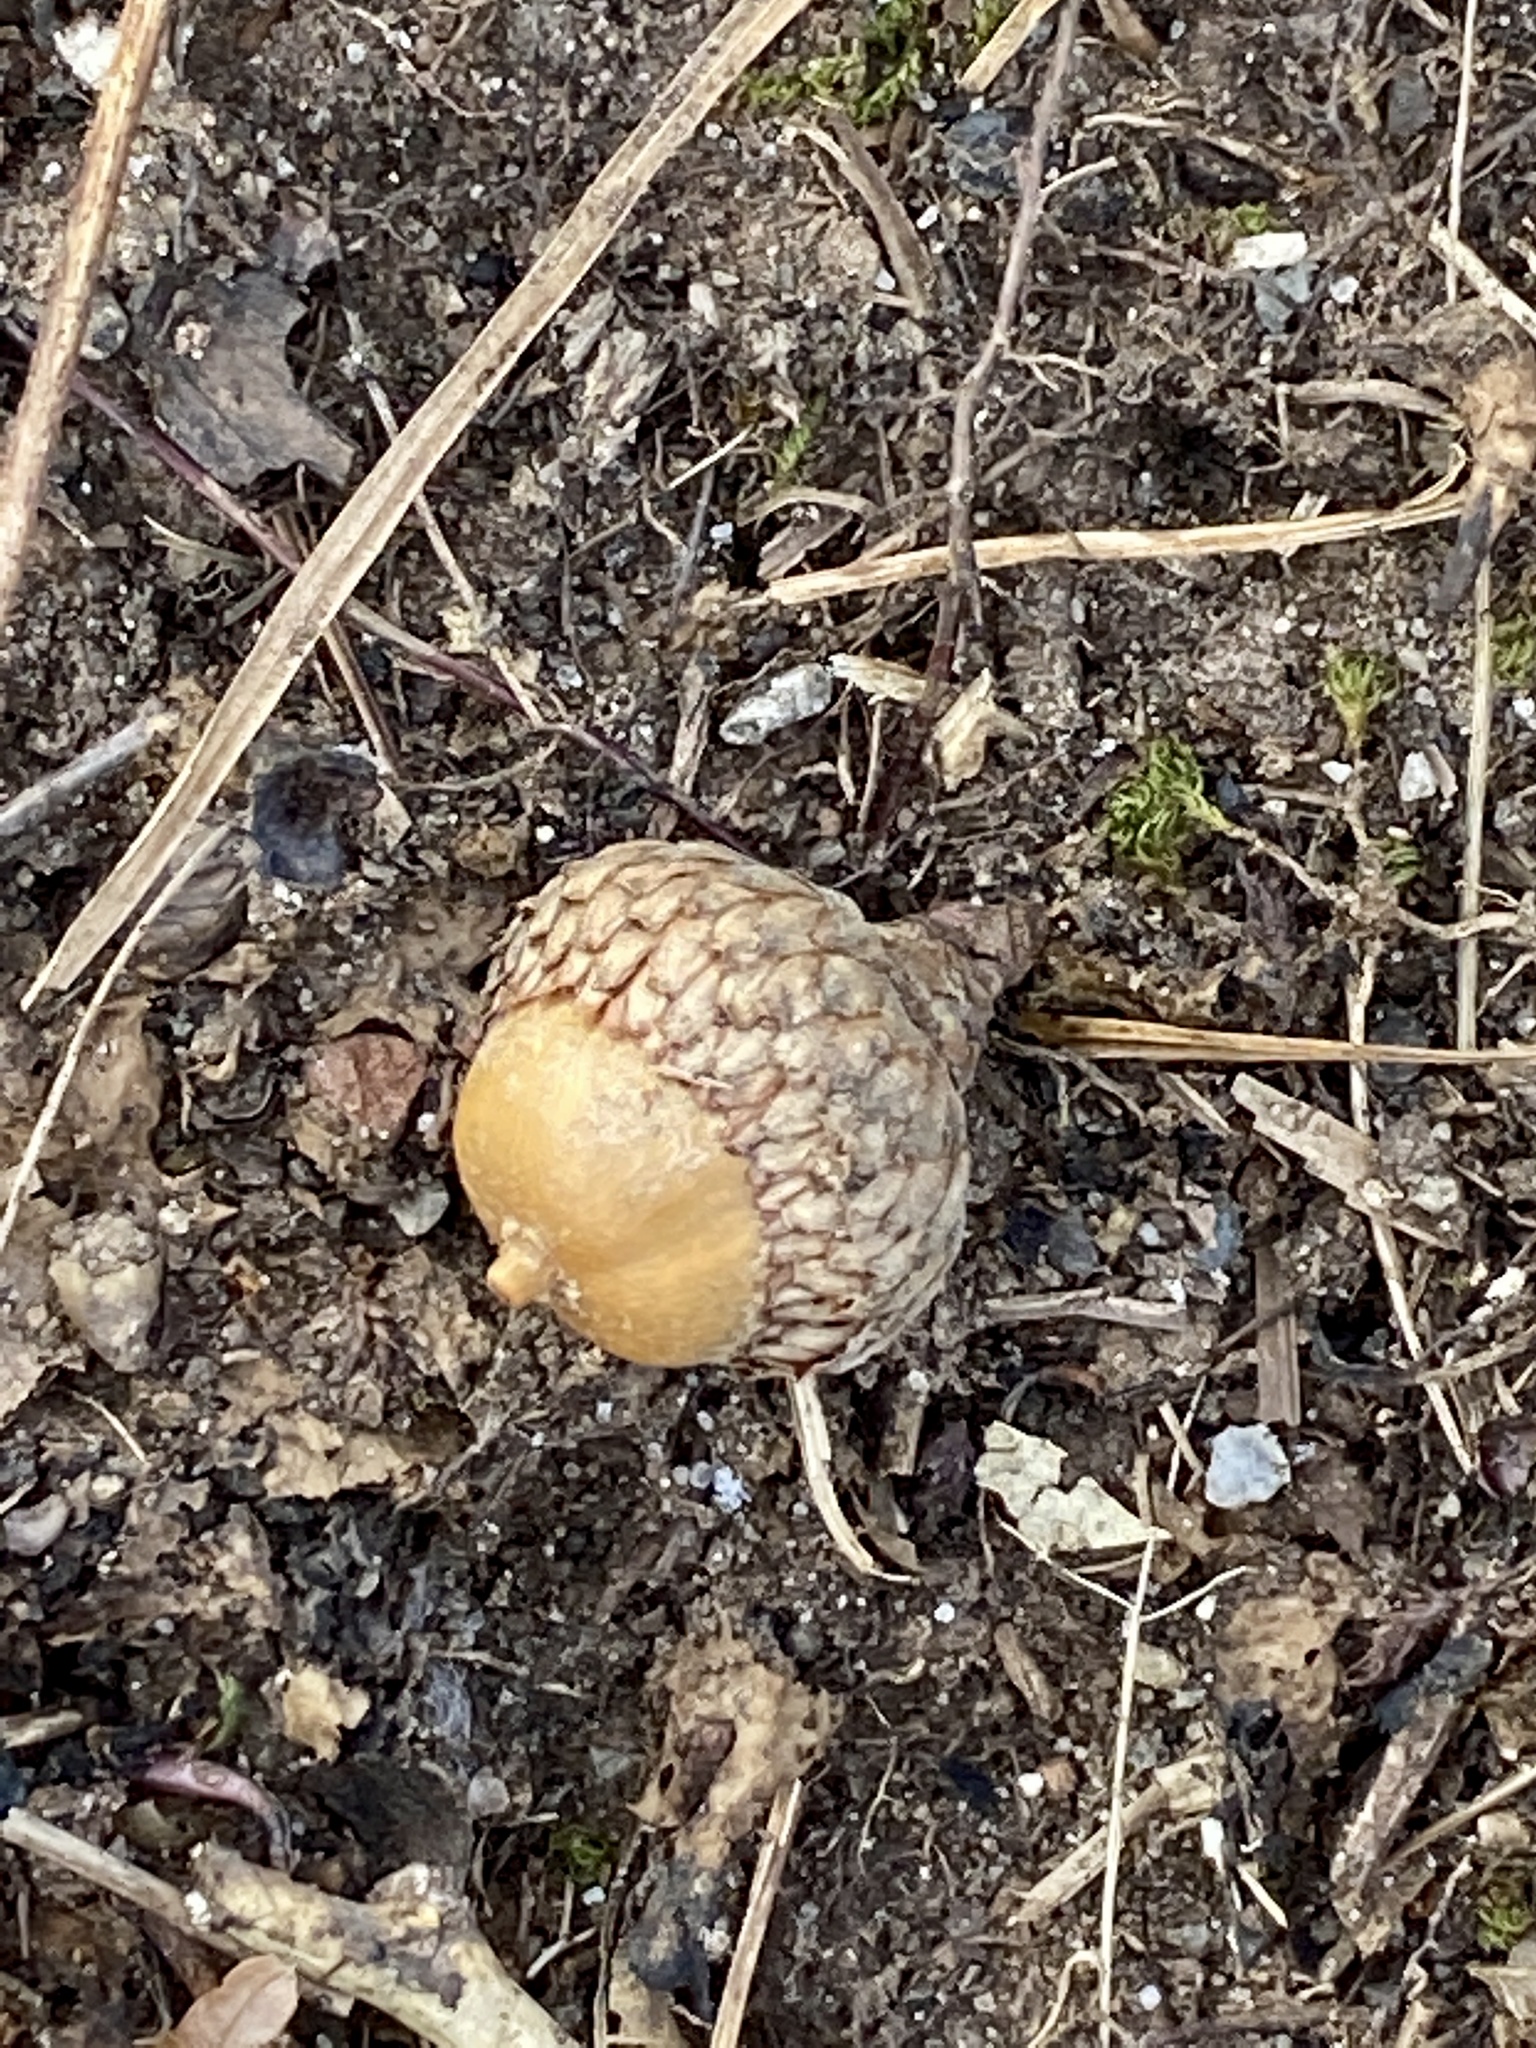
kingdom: Plantae
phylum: Tracheophyta
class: Magnoliopsida
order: Fagales
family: Fagaceae
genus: Quercus
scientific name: Quercus velutina
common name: Black oak
